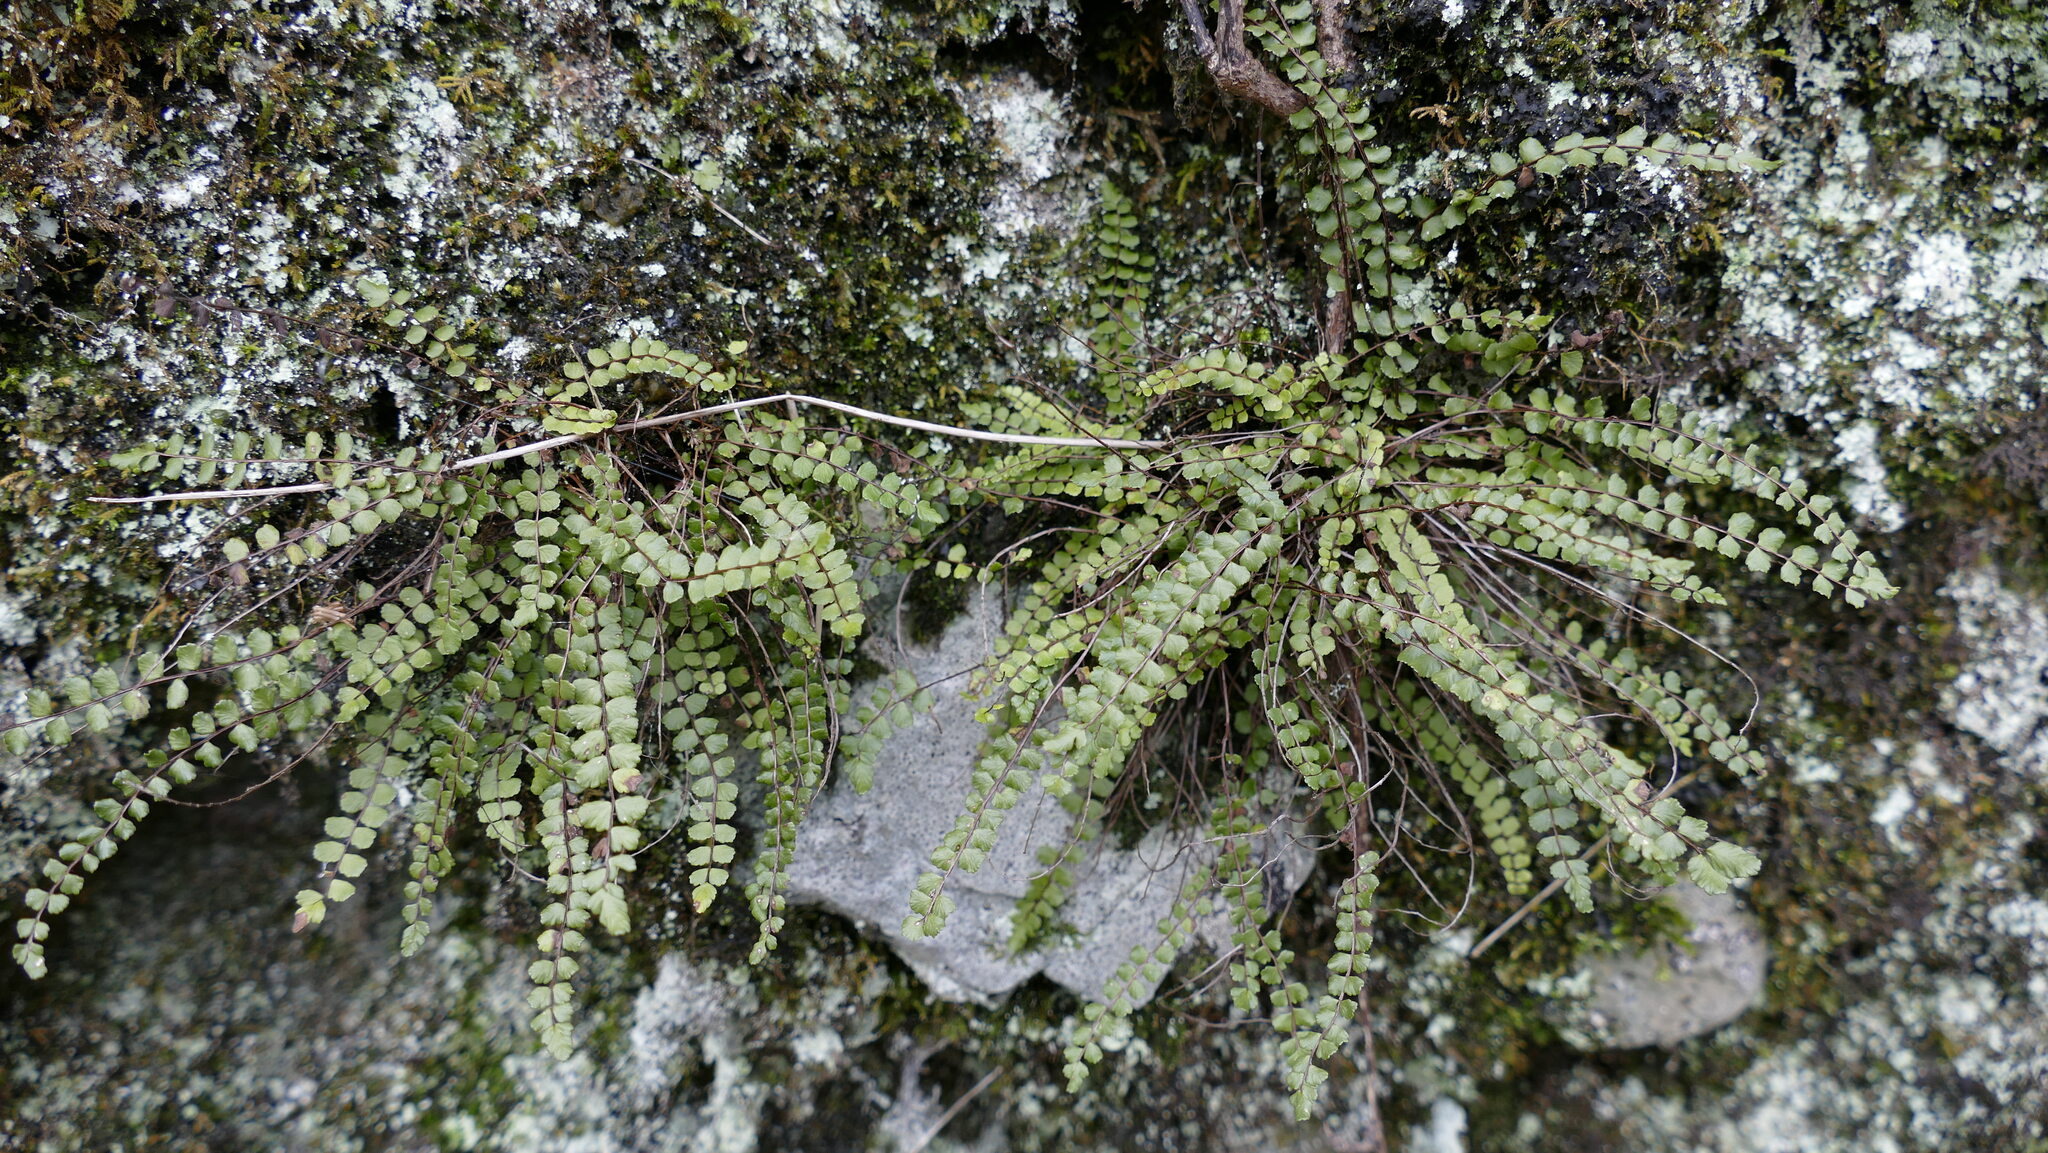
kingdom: Plantae
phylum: Tracheophyta
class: Polypodiopsida
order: Polypodiales
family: Aspleniaceae
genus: Asplenium
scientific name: Asplenium trichomanes
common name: Maidenhair spleenwort
